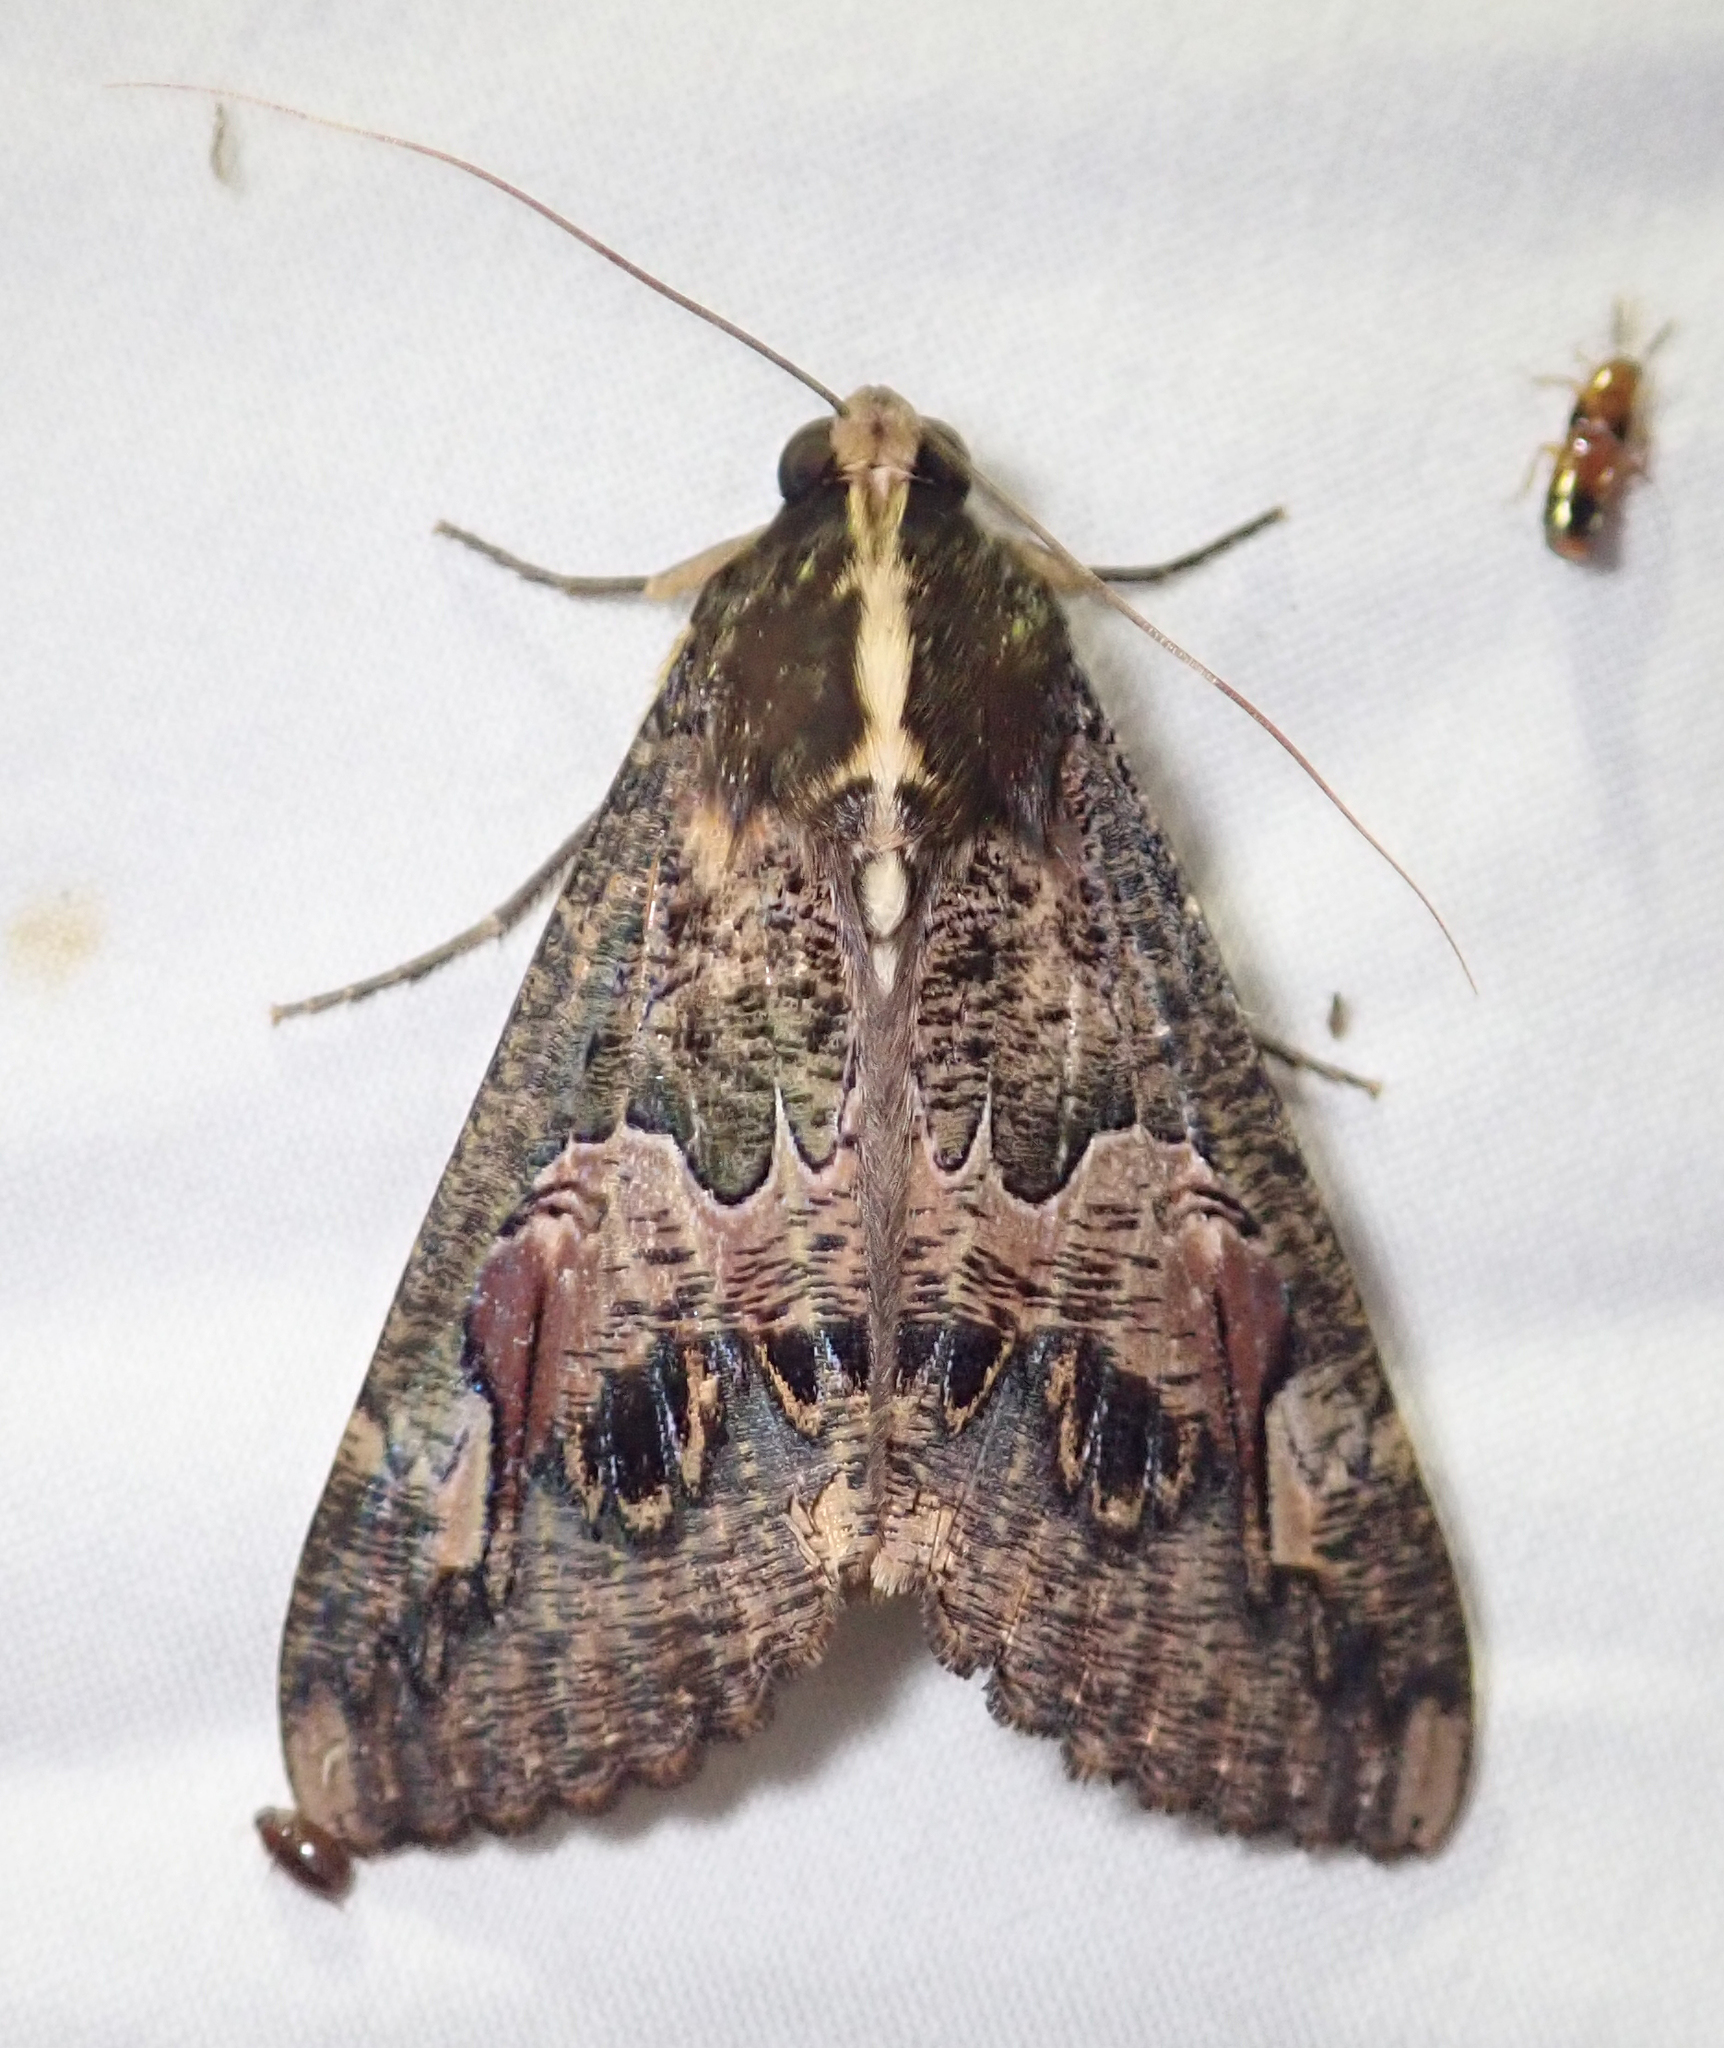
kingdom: Animalia
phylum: Arthropoda
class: Insecta
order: Lepidoptera
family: Erebidae
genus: Sphingomorpha
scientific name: Sphingomorpha chlorea
